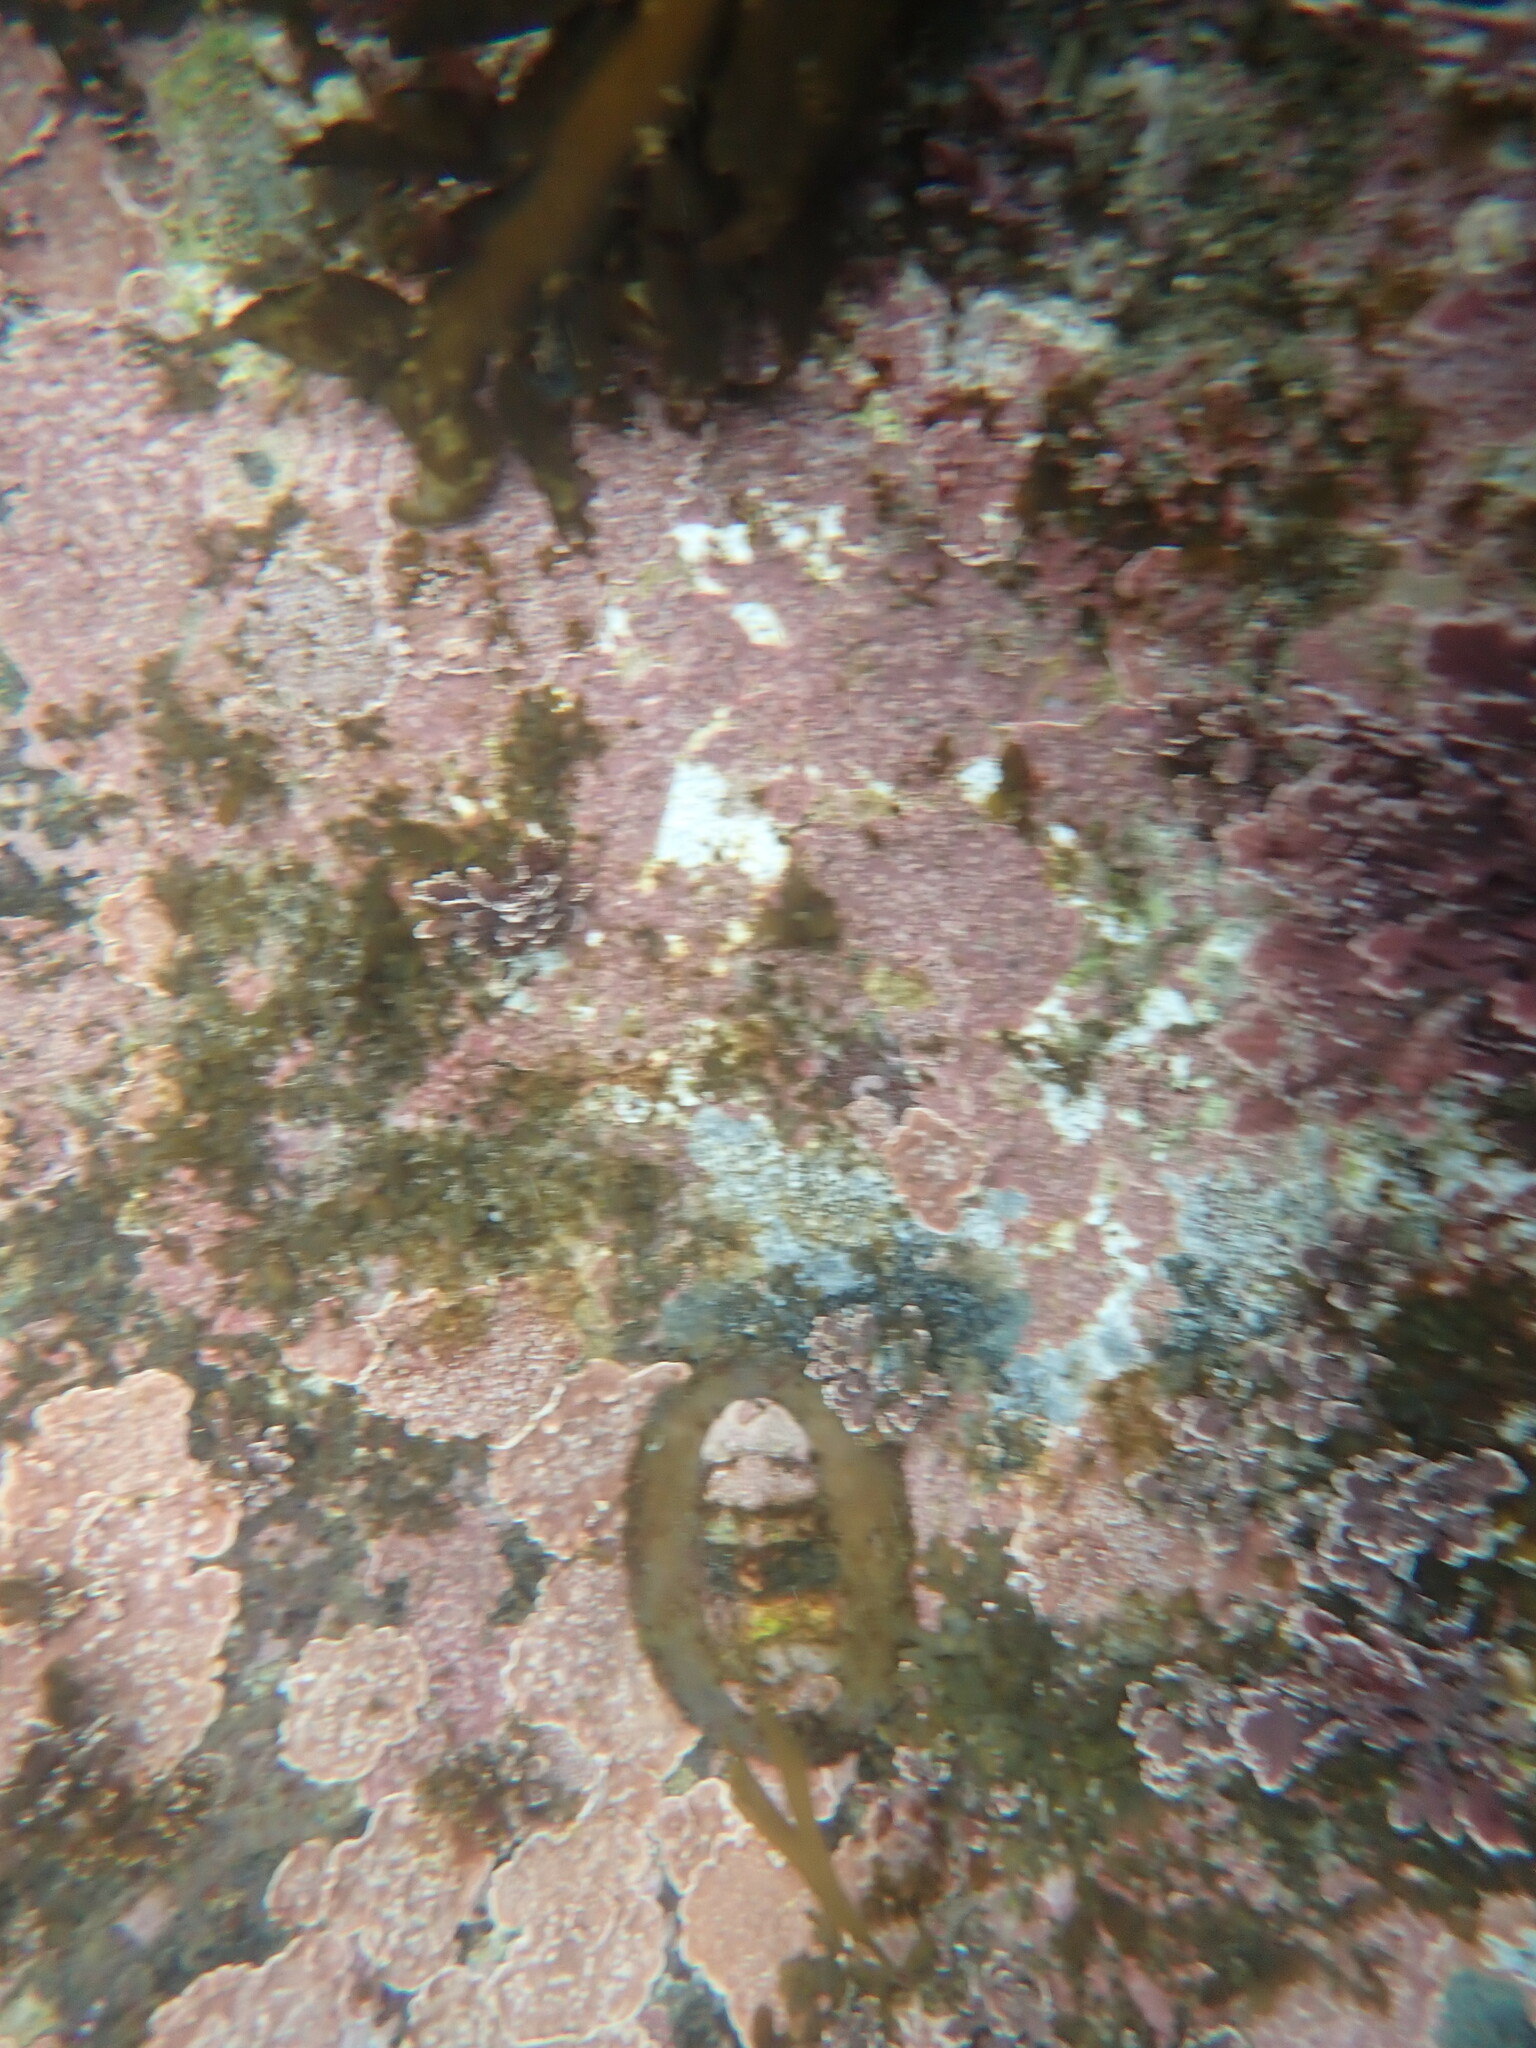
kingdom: Animalia
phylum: Mollusca
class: Polyplacophora
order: Chitonida
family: Mopaliidae
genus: Plaxiphora
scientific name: Plaxiphora biramosa
